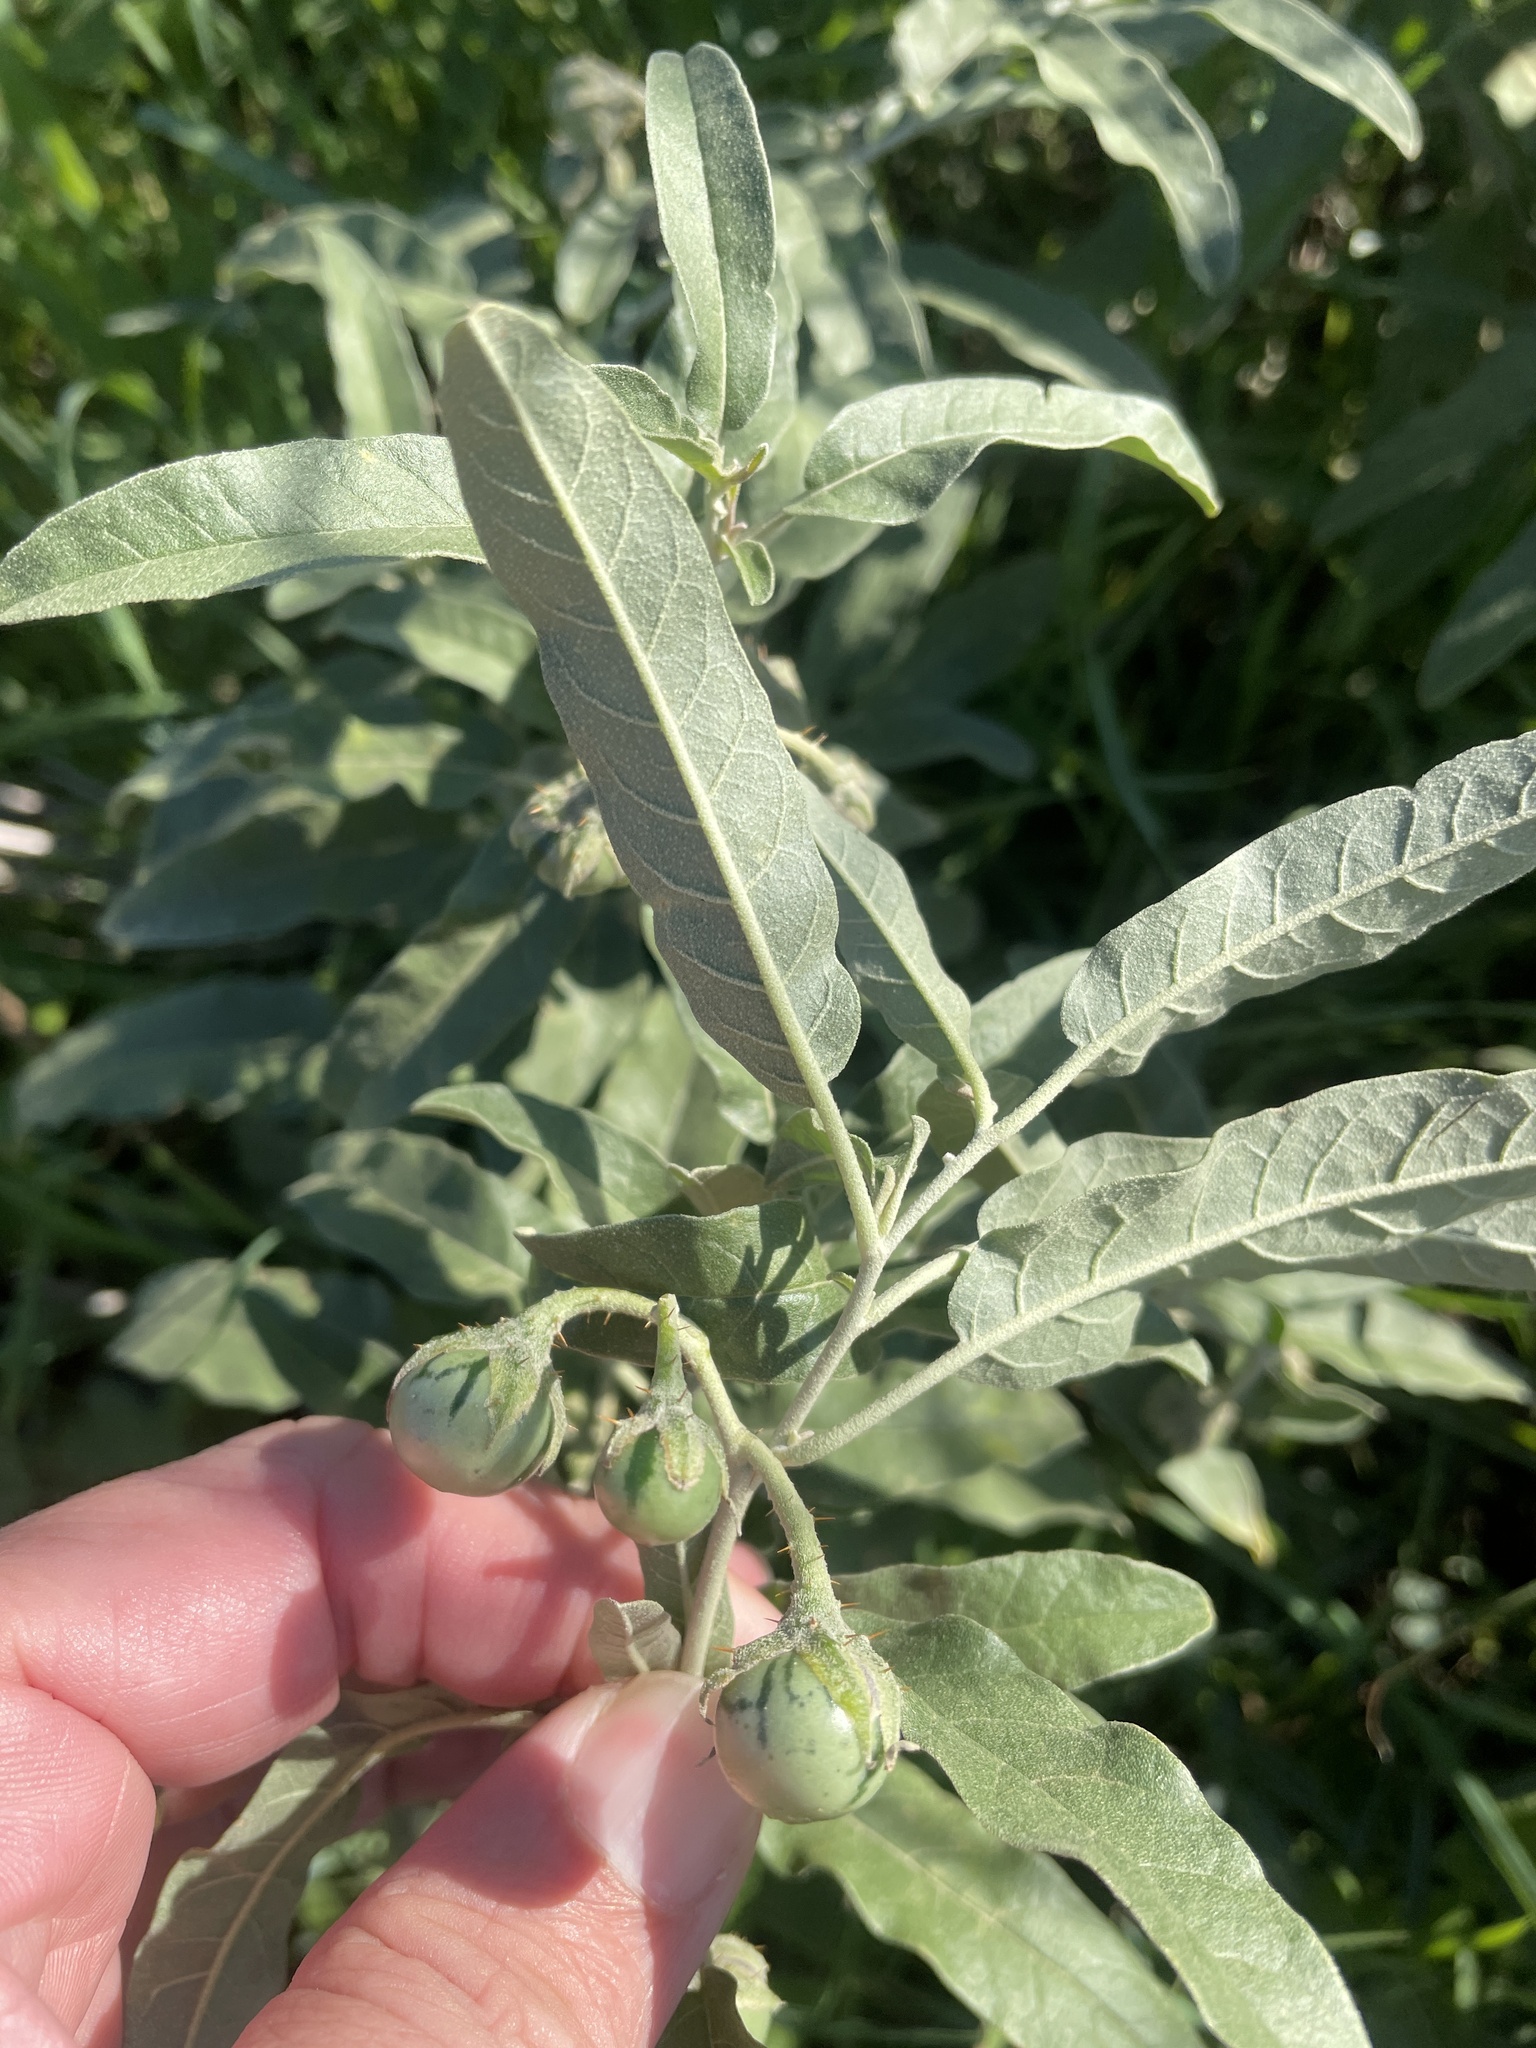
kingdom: Plantae
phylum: Tracheophyta
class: Magnoliopsida
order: Solanales
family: Solanaceae
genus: Solanum
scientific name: Solanum elaeagnifolium
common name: Silverleaf nightshade
